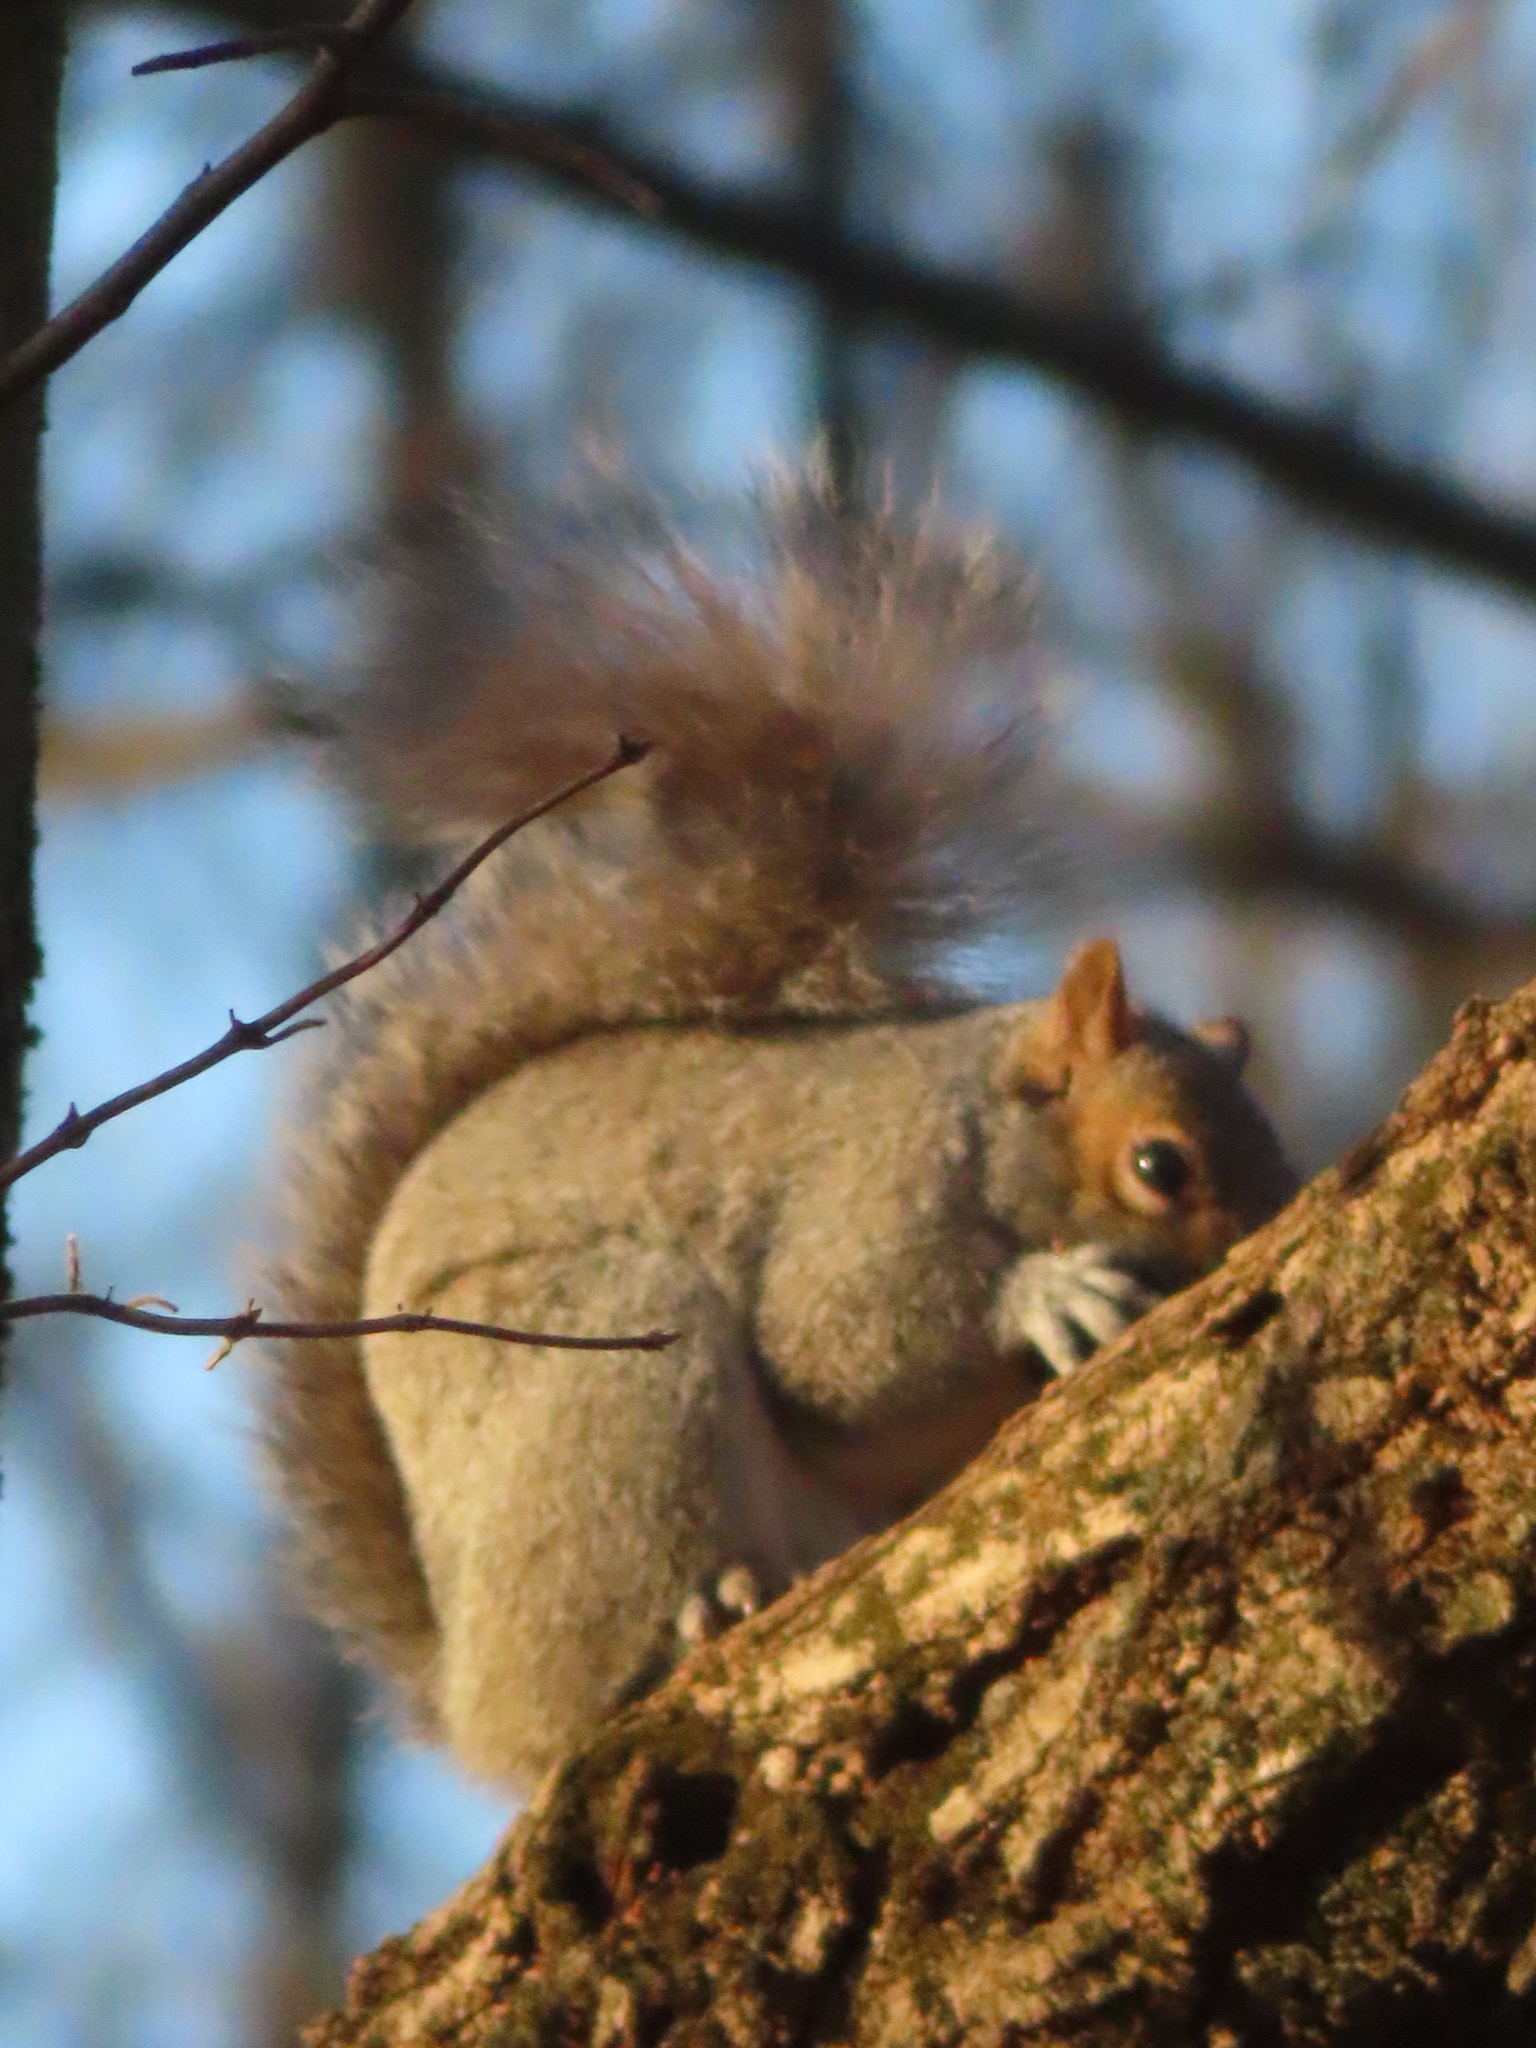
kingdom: Animalia
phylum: Chordata
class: Mammalia
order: Rodentia
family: Sciuridae
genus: Sciurus
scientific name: Sciurus carolinensis
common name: Eastern gray squirrel
